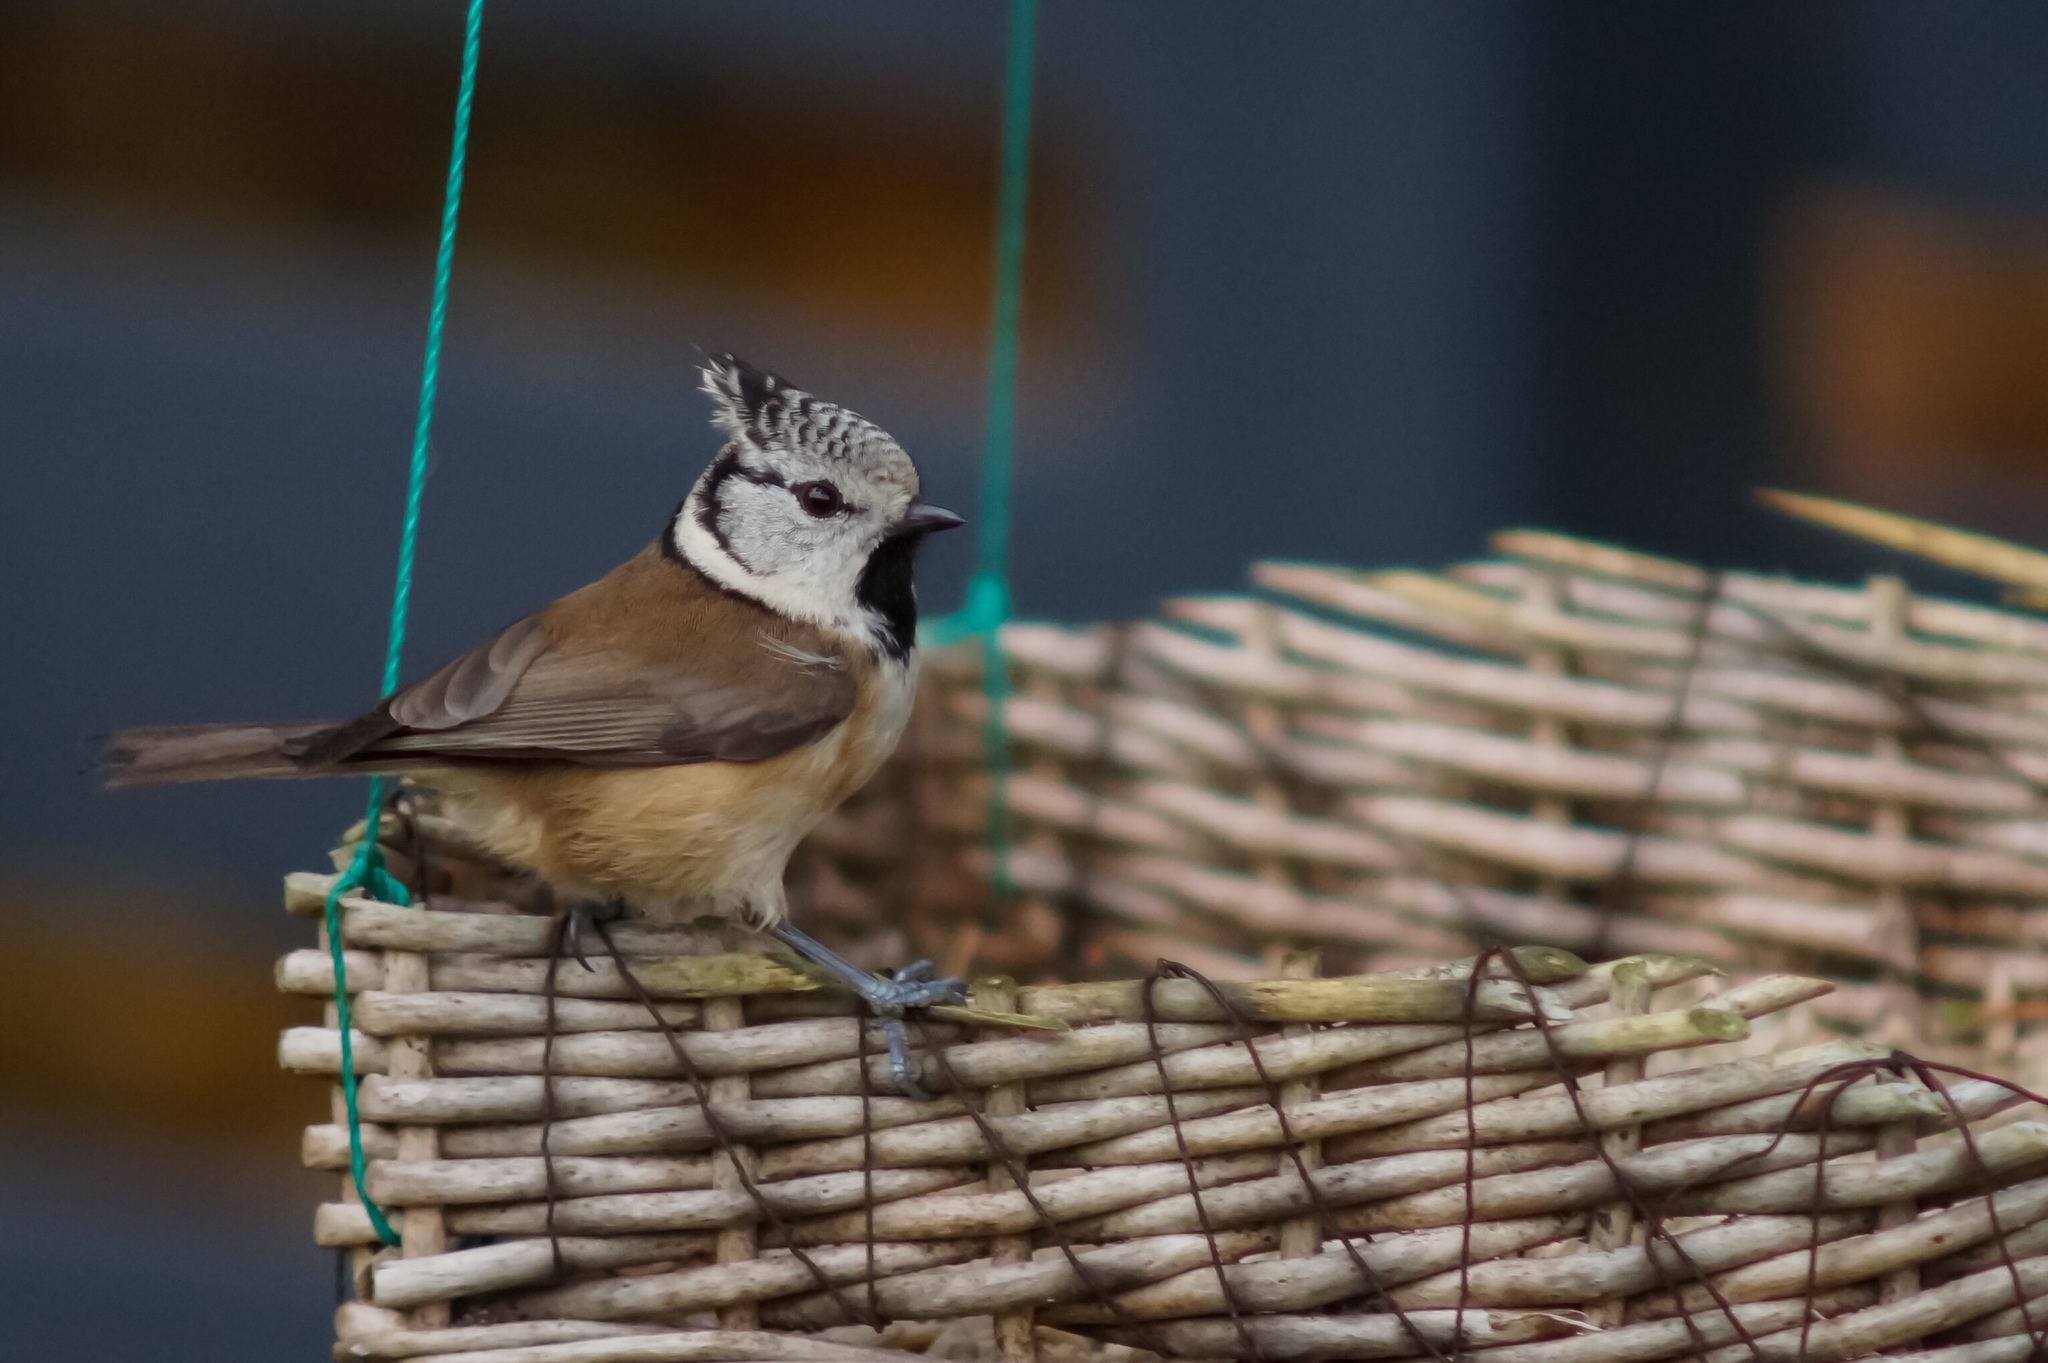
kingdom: Animalia
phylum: Chordata
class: Aves
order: Passeriformes
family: Paridae
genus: Lophophanes
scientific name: Lophophanes cristatus
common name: European crested tit
